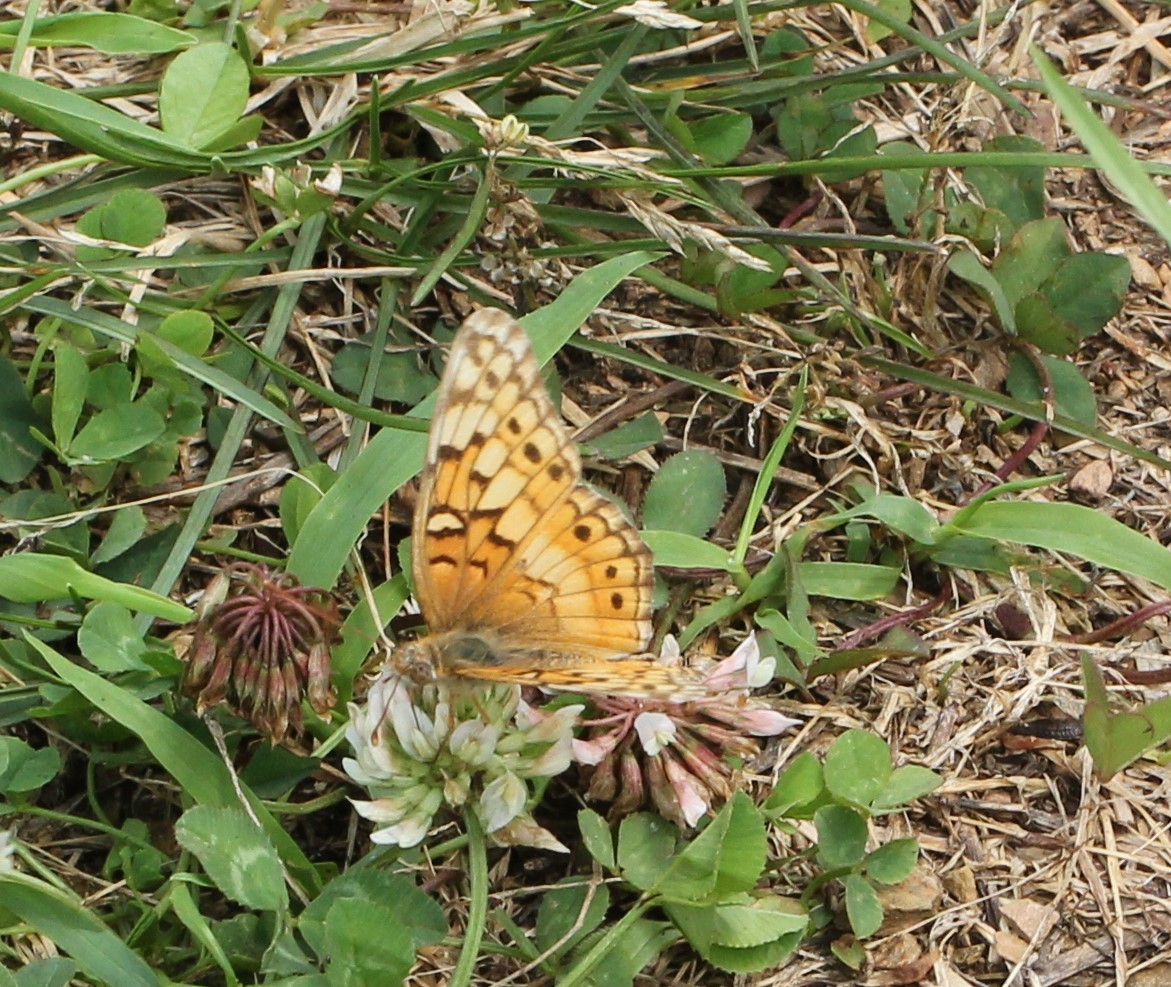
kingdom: Animalia
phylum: Arthropoda
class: Insecta
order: Lepidoptera
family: Nymphalidae
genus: Euptoieta
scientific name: Euptoieta claudia
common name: Variegated fritillary
